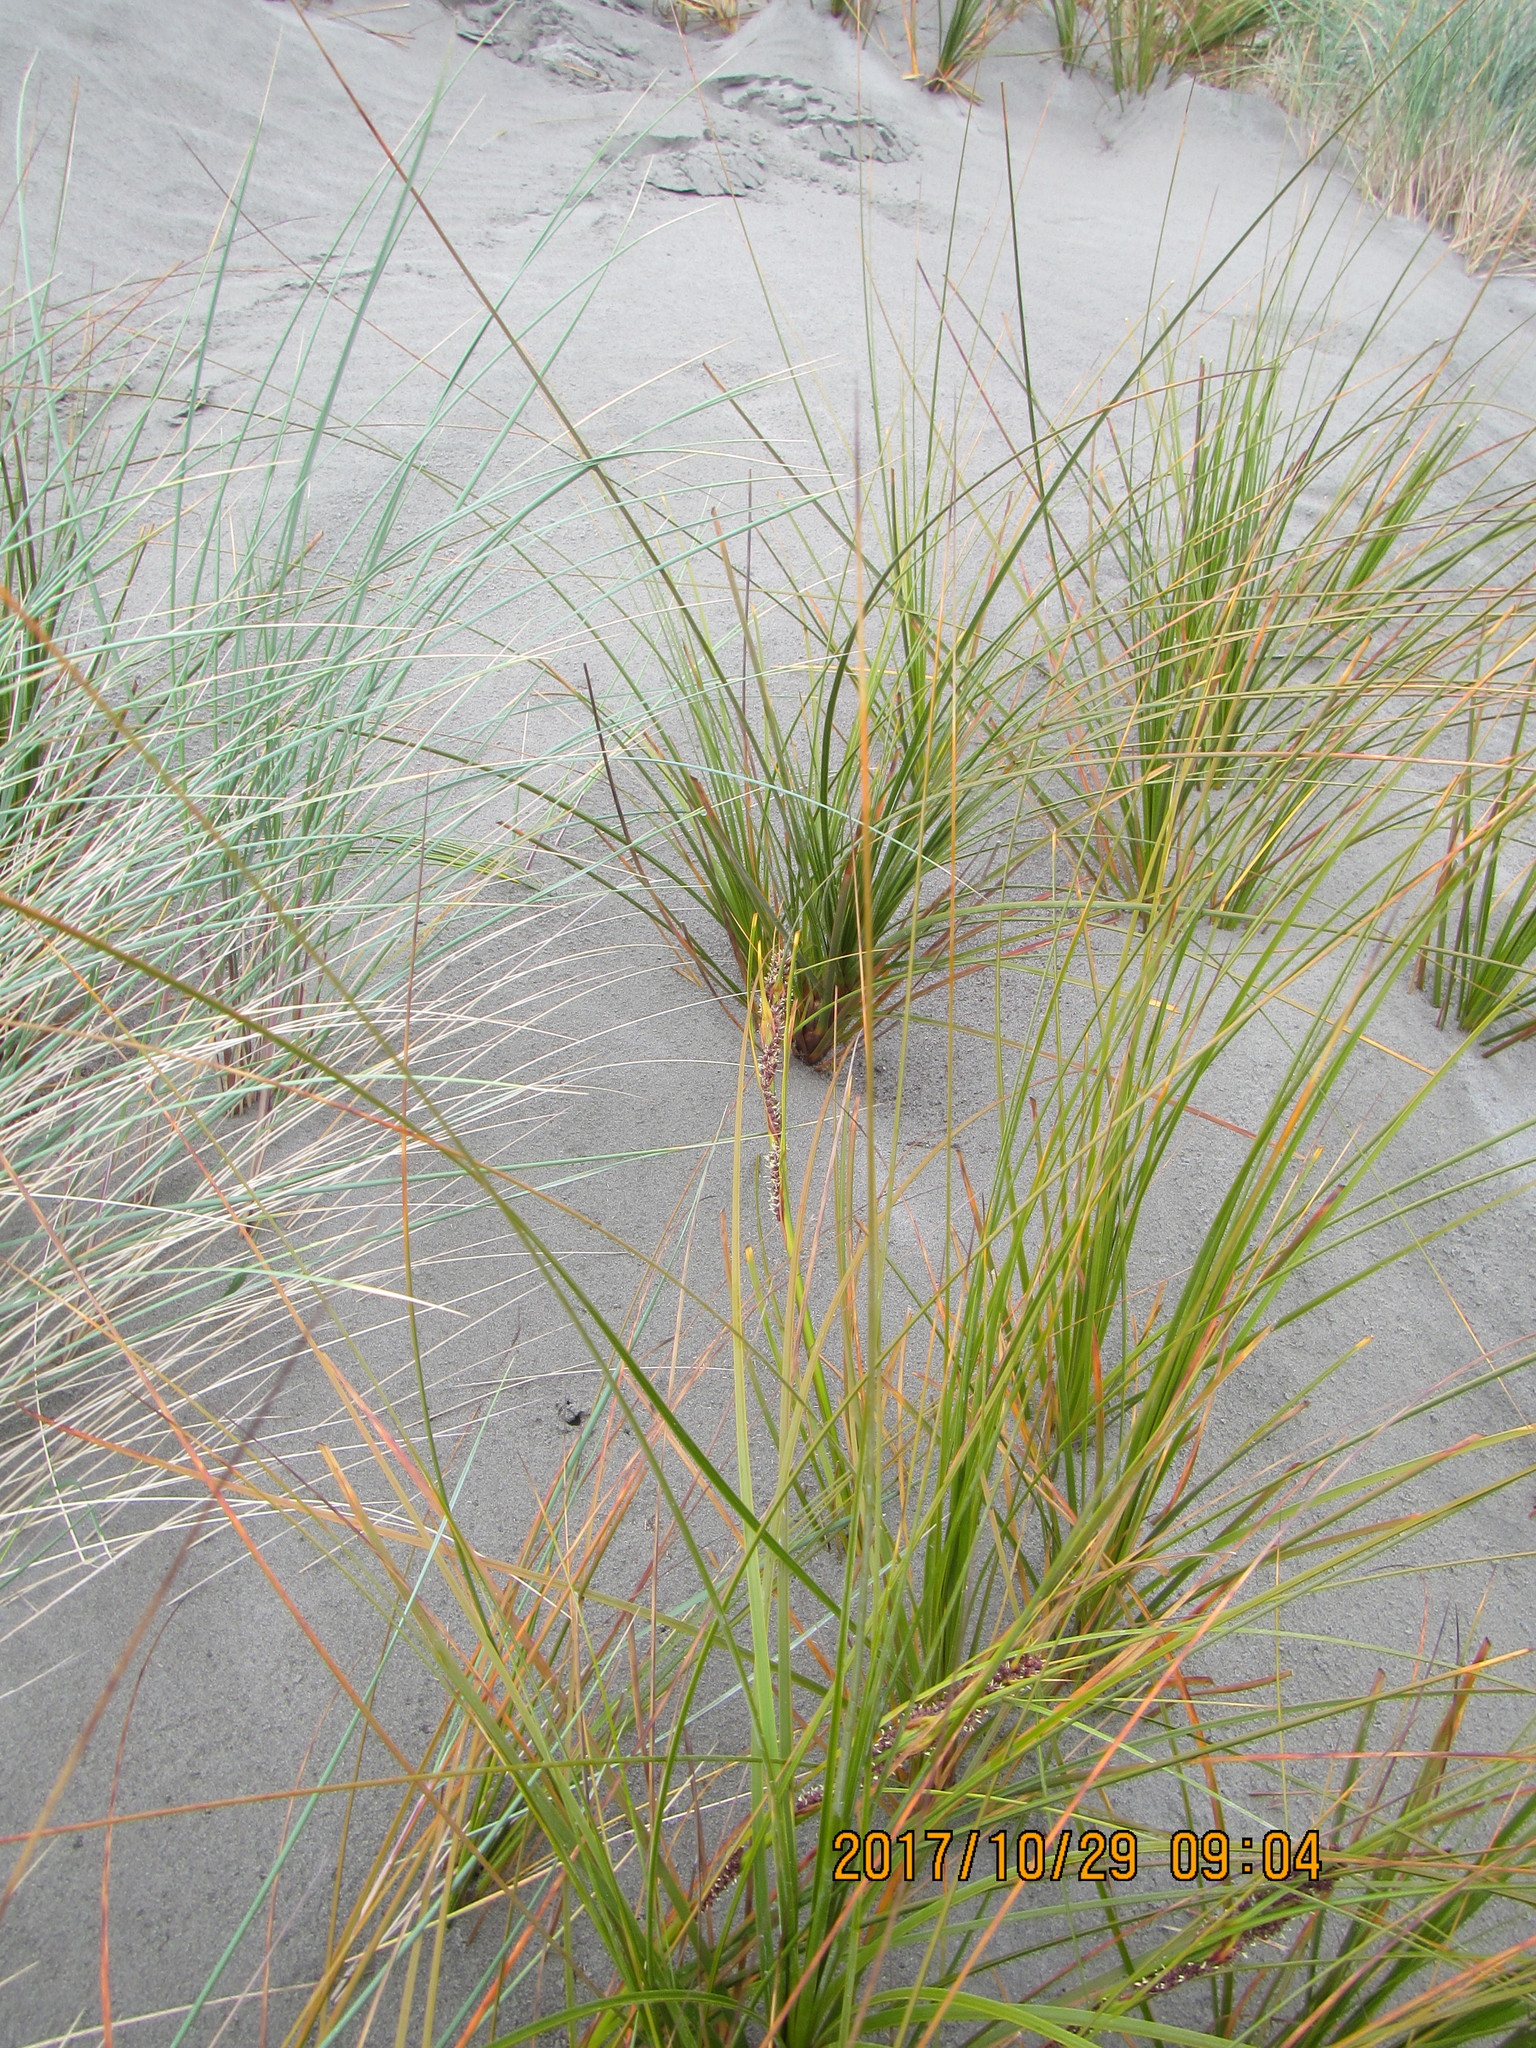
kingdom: Plantae
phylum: Tracheophyta
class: Liliopsida
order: Poales
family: Cyperaceae
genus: Ficinia
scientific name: Ficinia spiralis
